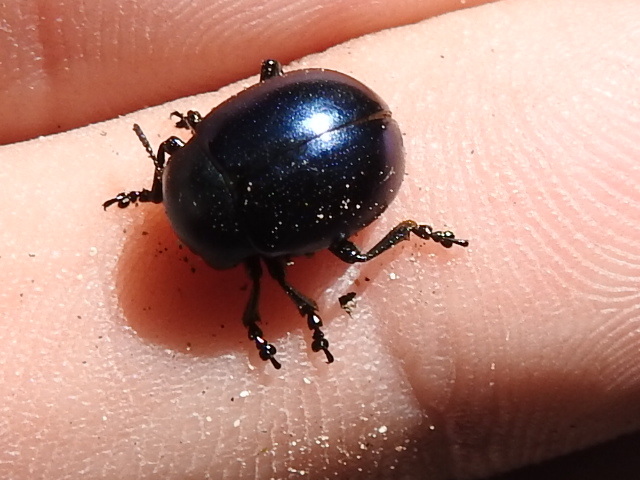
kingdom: Animalia
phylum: Arthropoda
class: Insecta
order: Coleoptera
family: Chrysomelidae
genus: Leptinotarsa
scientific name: Leptinotarsa haldemani
